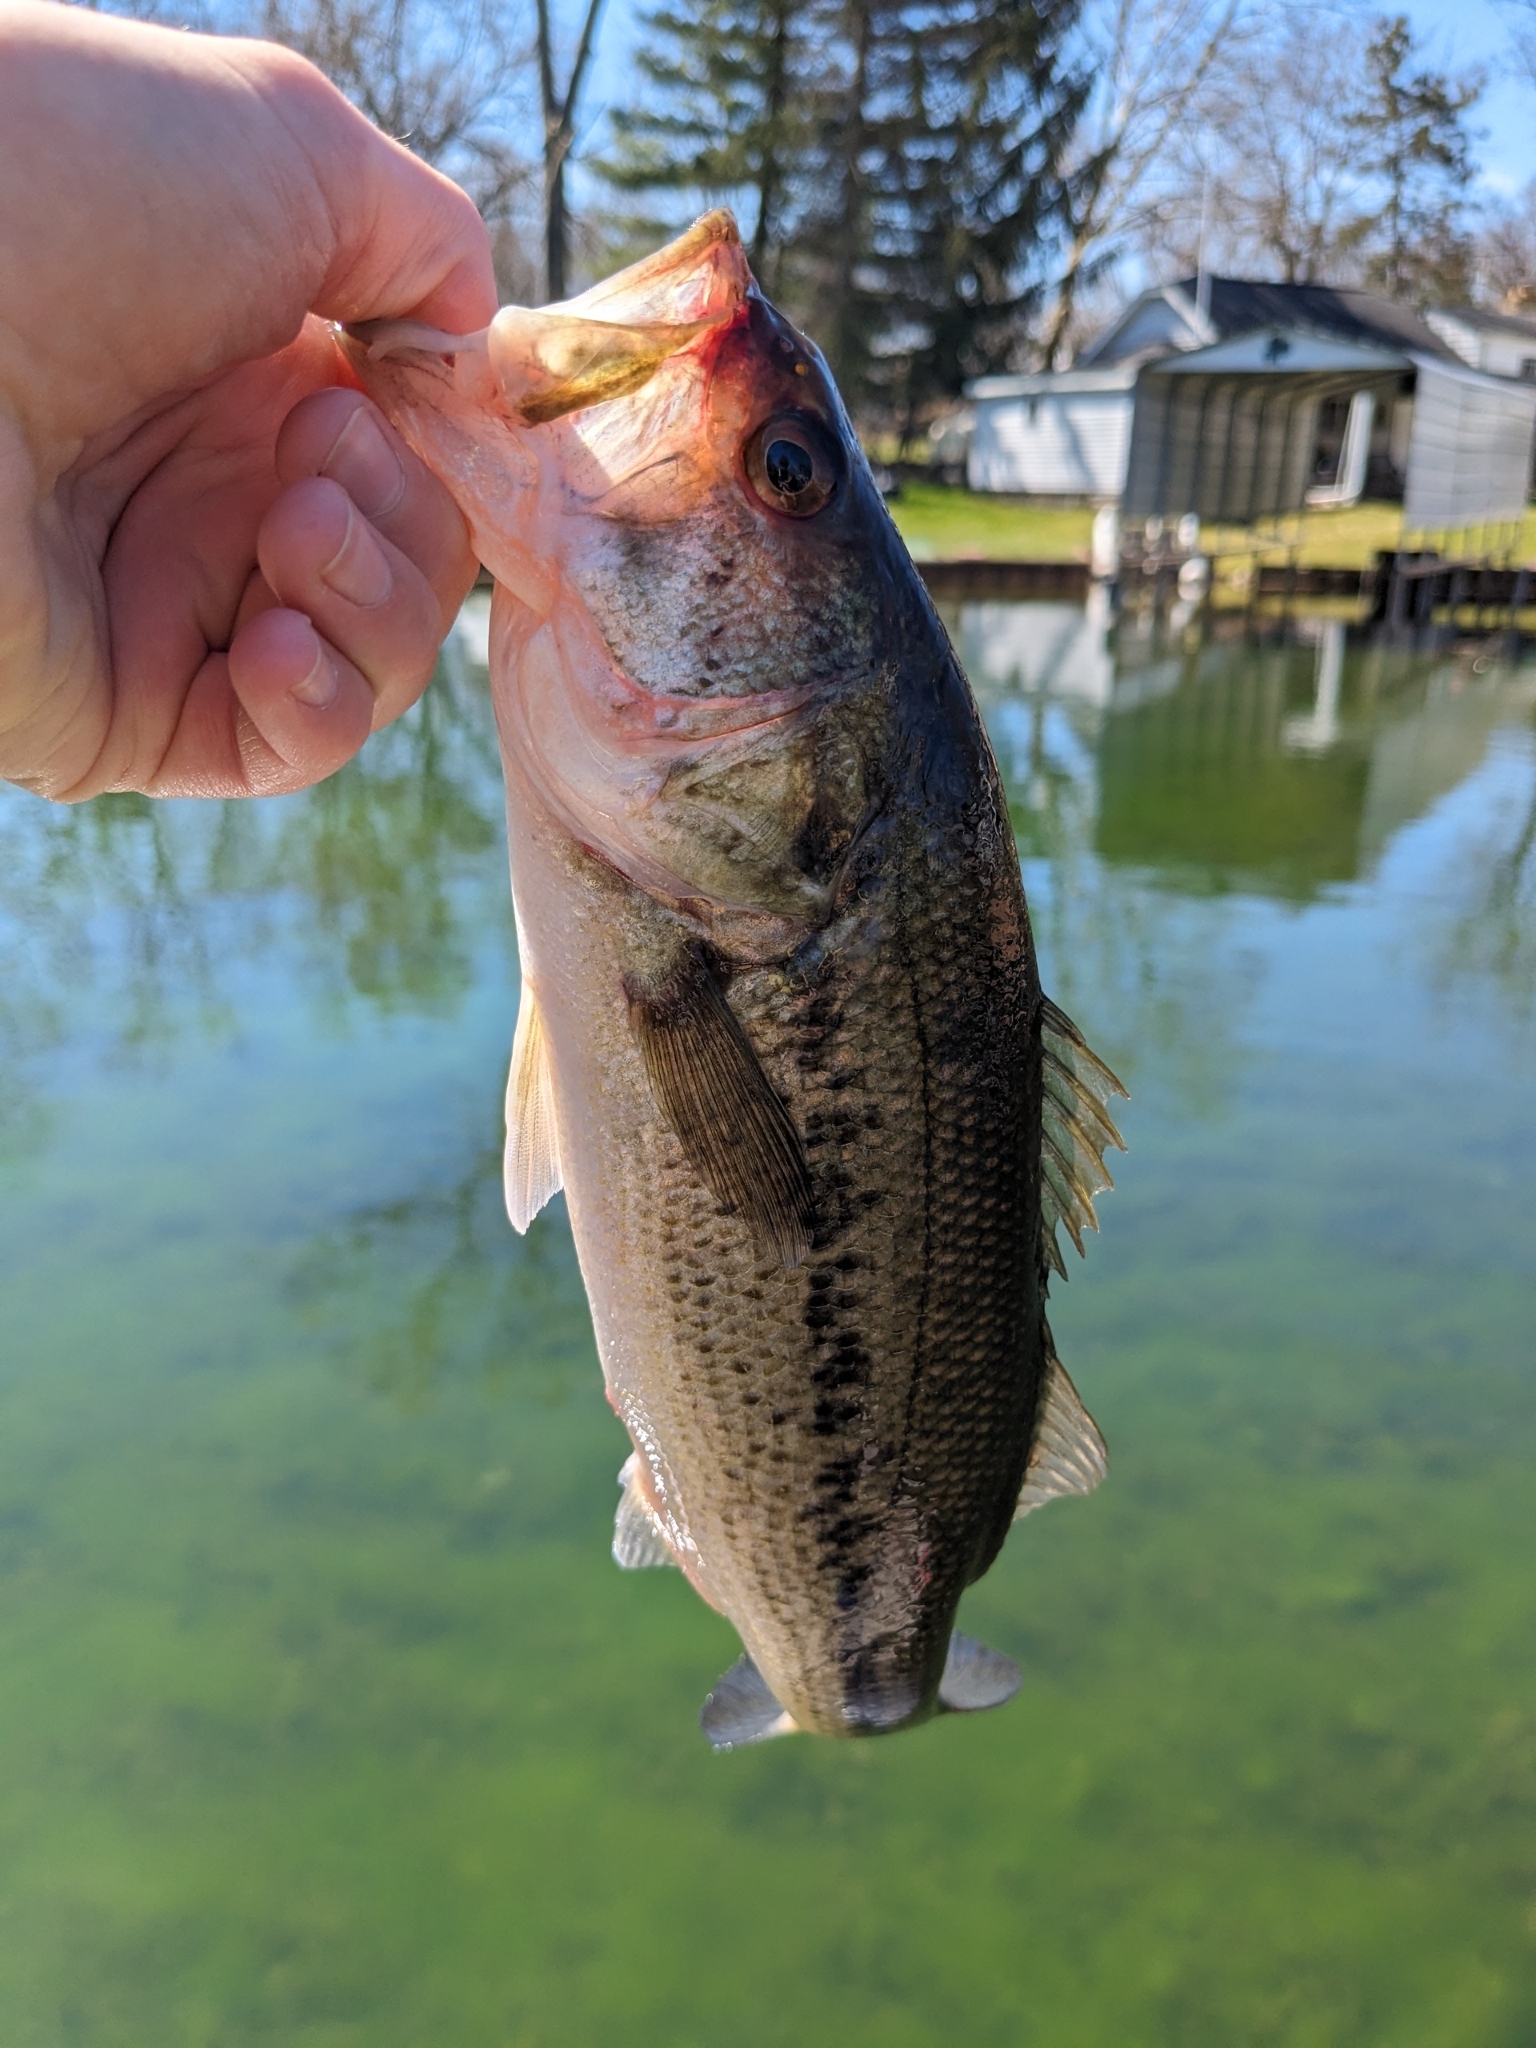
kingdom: Animalia
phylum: Chordata
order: Perciformes
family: Centrarchidae
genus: Micropterus
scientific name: Micropterus
